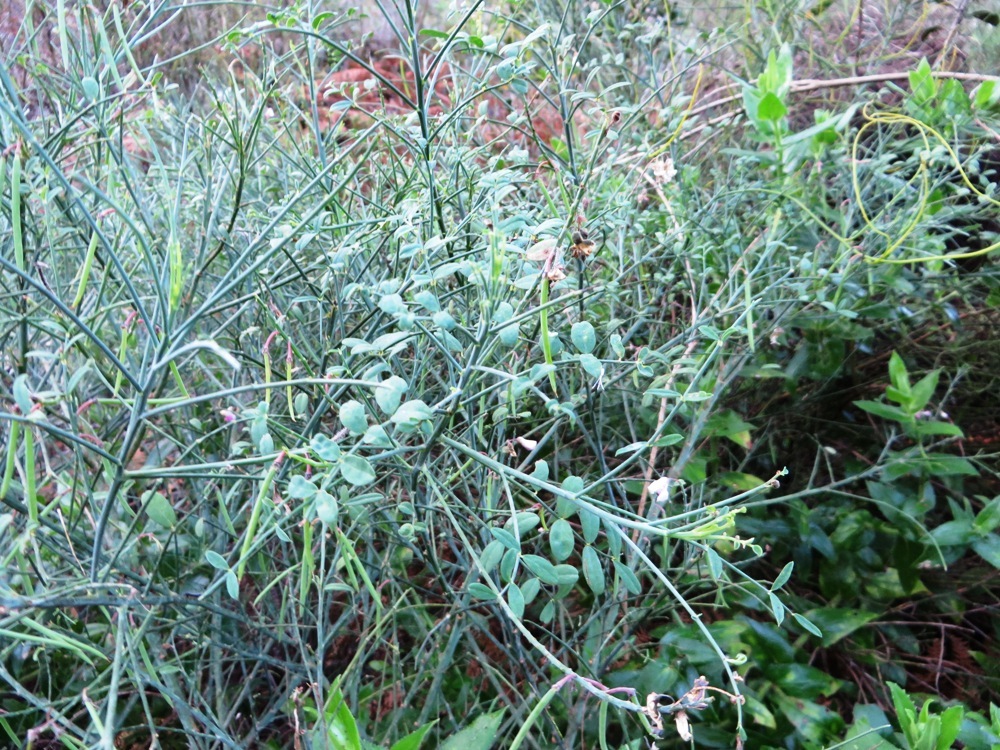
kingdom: Plantae
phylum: Tracheophyta
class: Magnoliopsida
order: Fabales
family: Fabaceae
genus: Indigofera
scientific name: Indigofera filifolia
